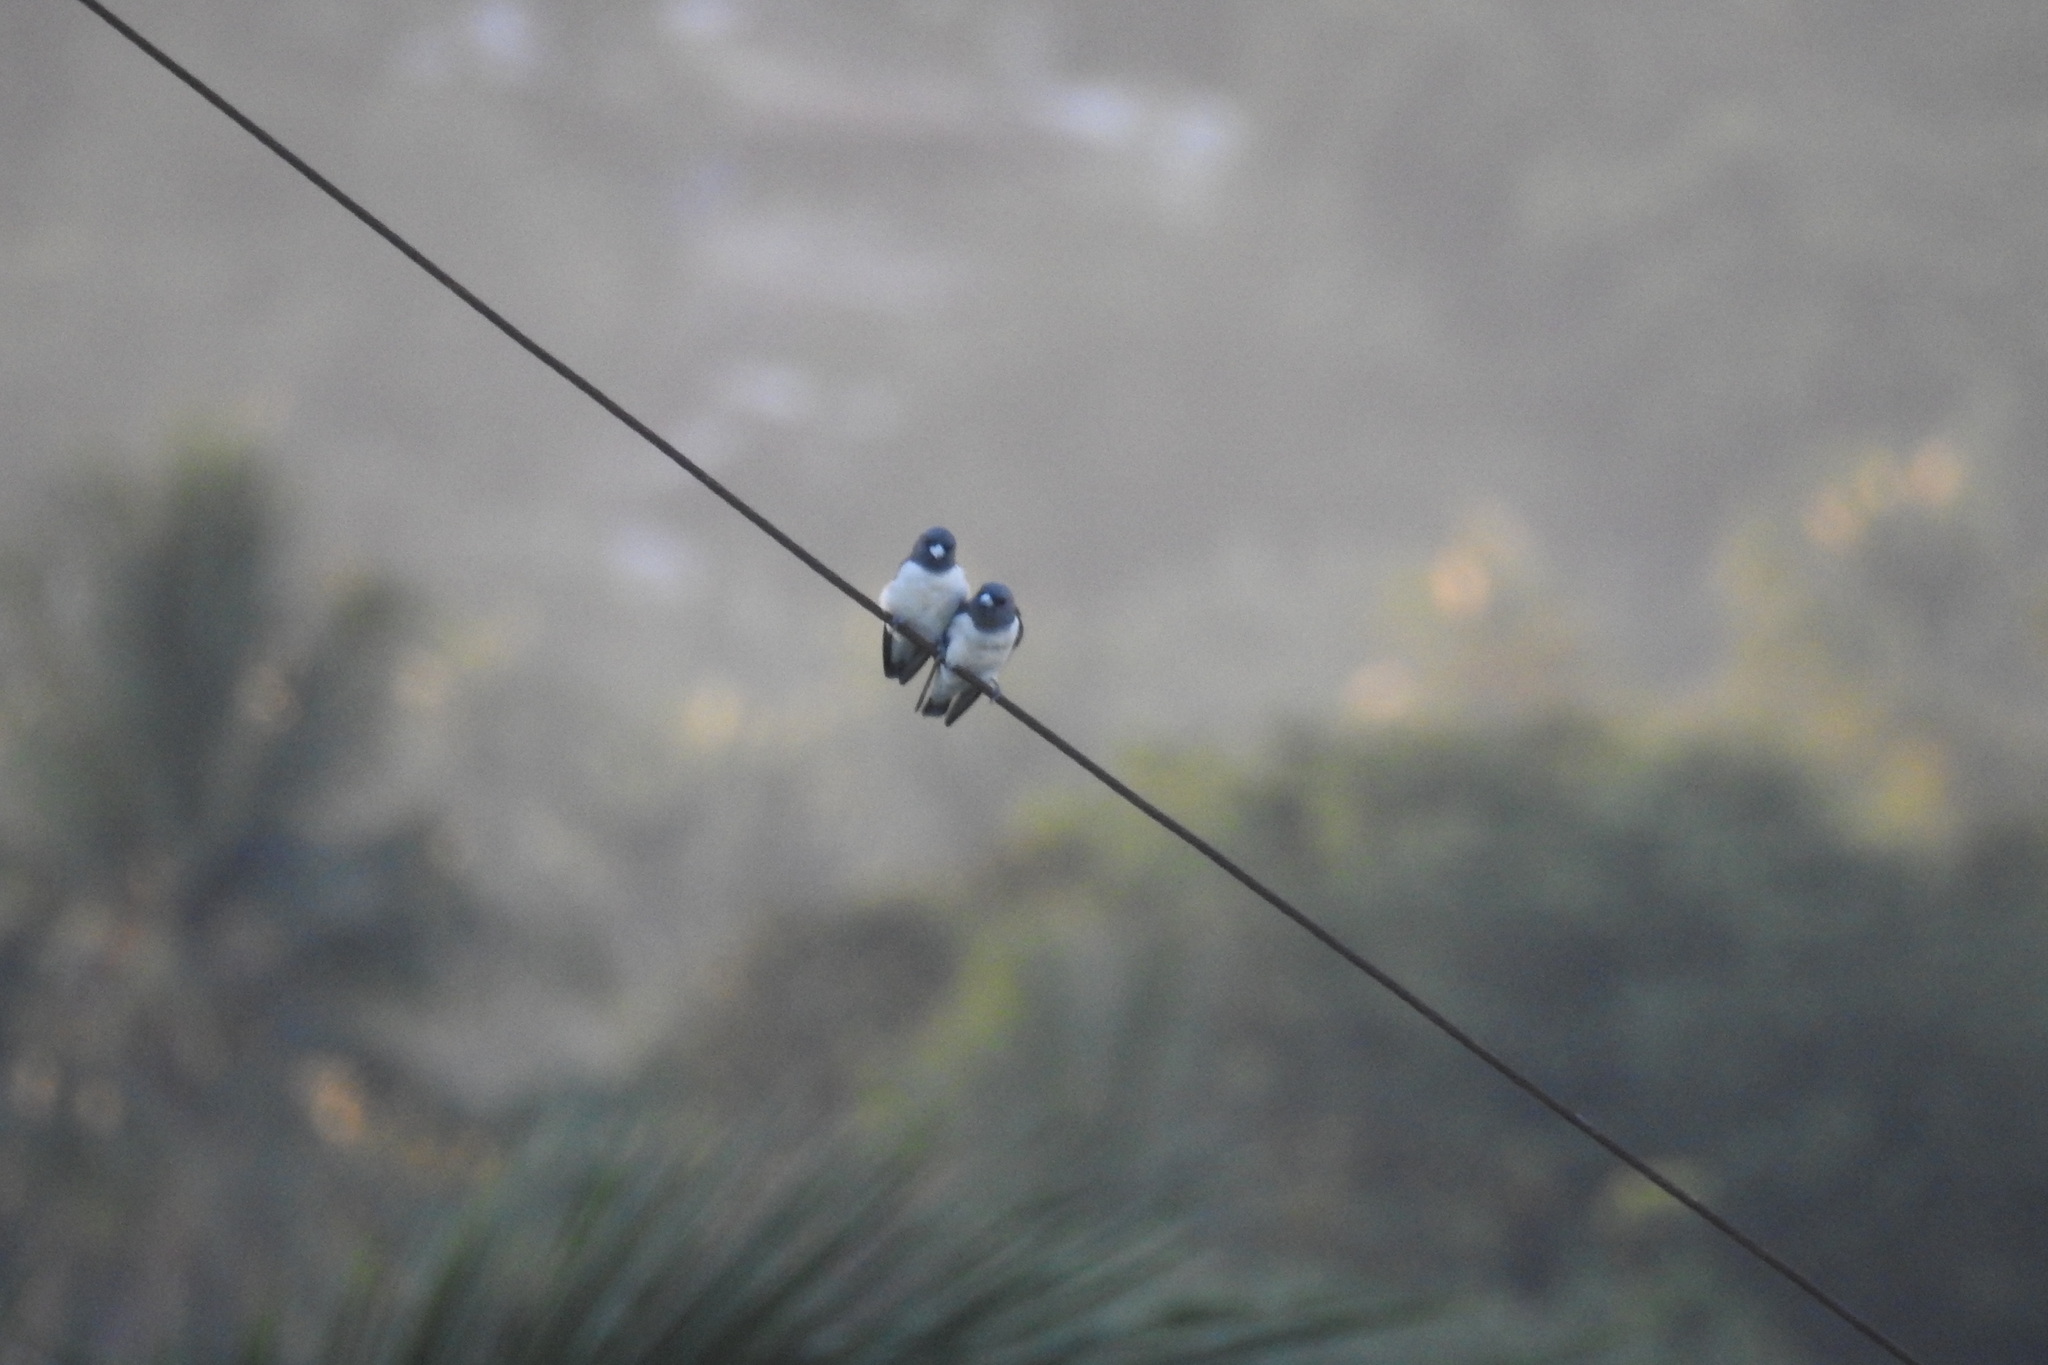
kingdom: Animalia
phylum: Chordata
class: Aves
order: Passeriformes
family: Artamidae
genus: Artamus
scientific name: Artamus leucoryn
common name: White-breasted woodswallow
